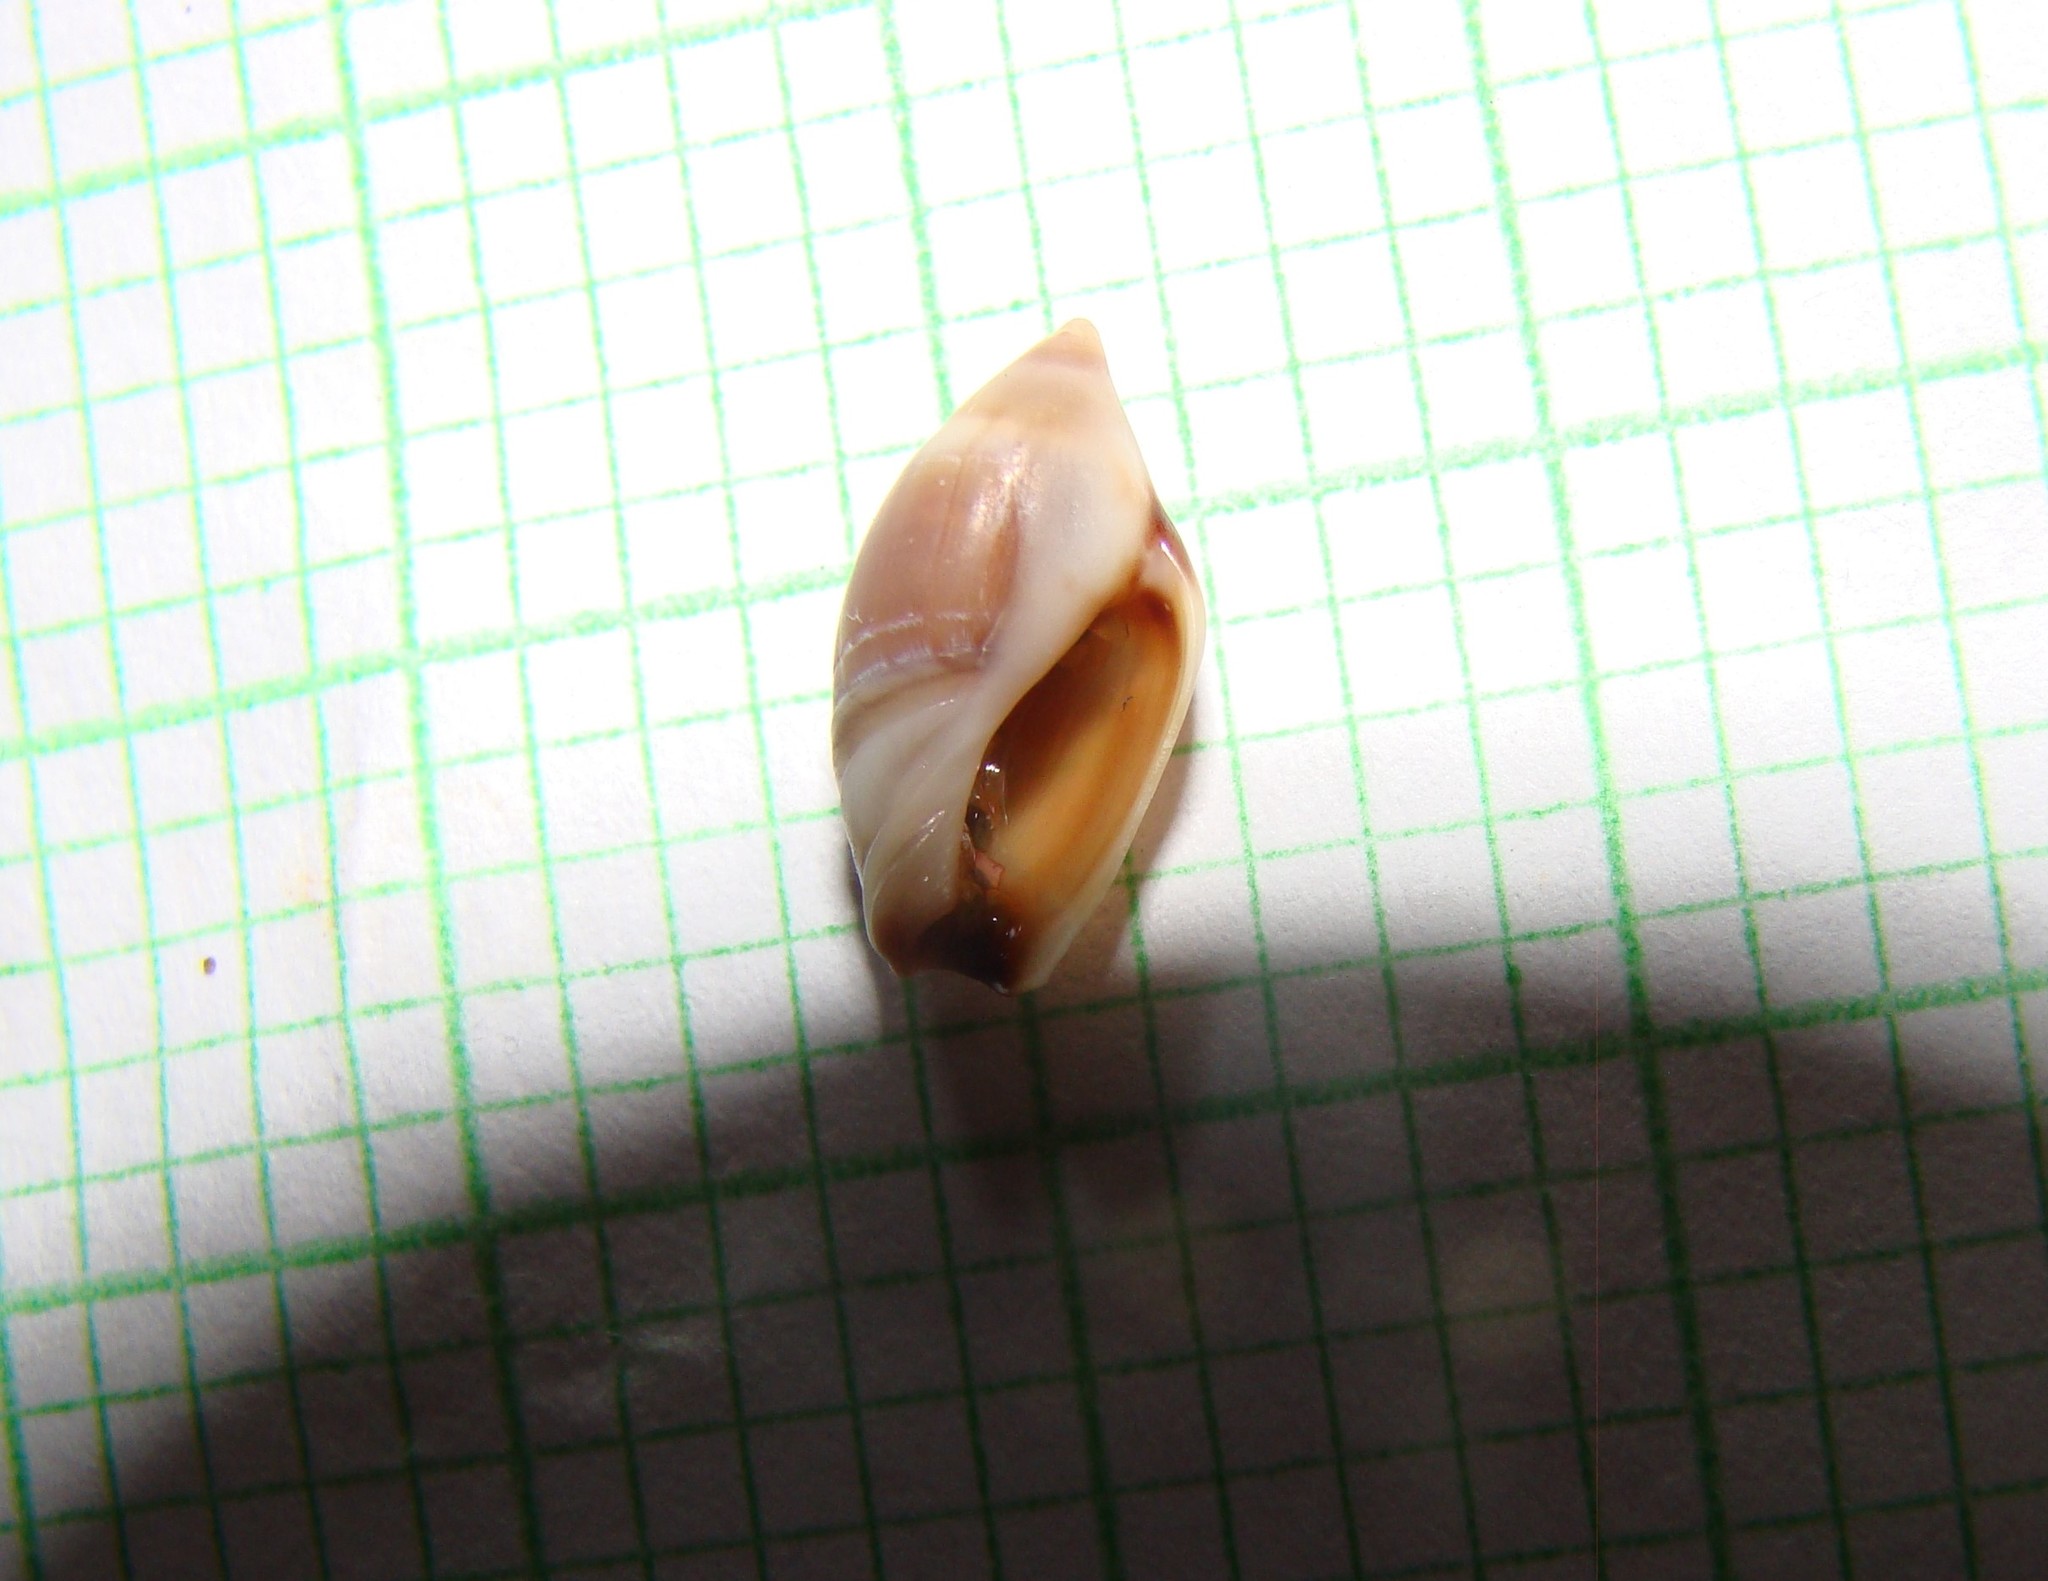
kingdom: Animalia
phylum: Mollusca
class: Gastropoda
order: Neogastropoda
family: Ancillariidae
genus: Amalda
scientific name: Amalda depressa
